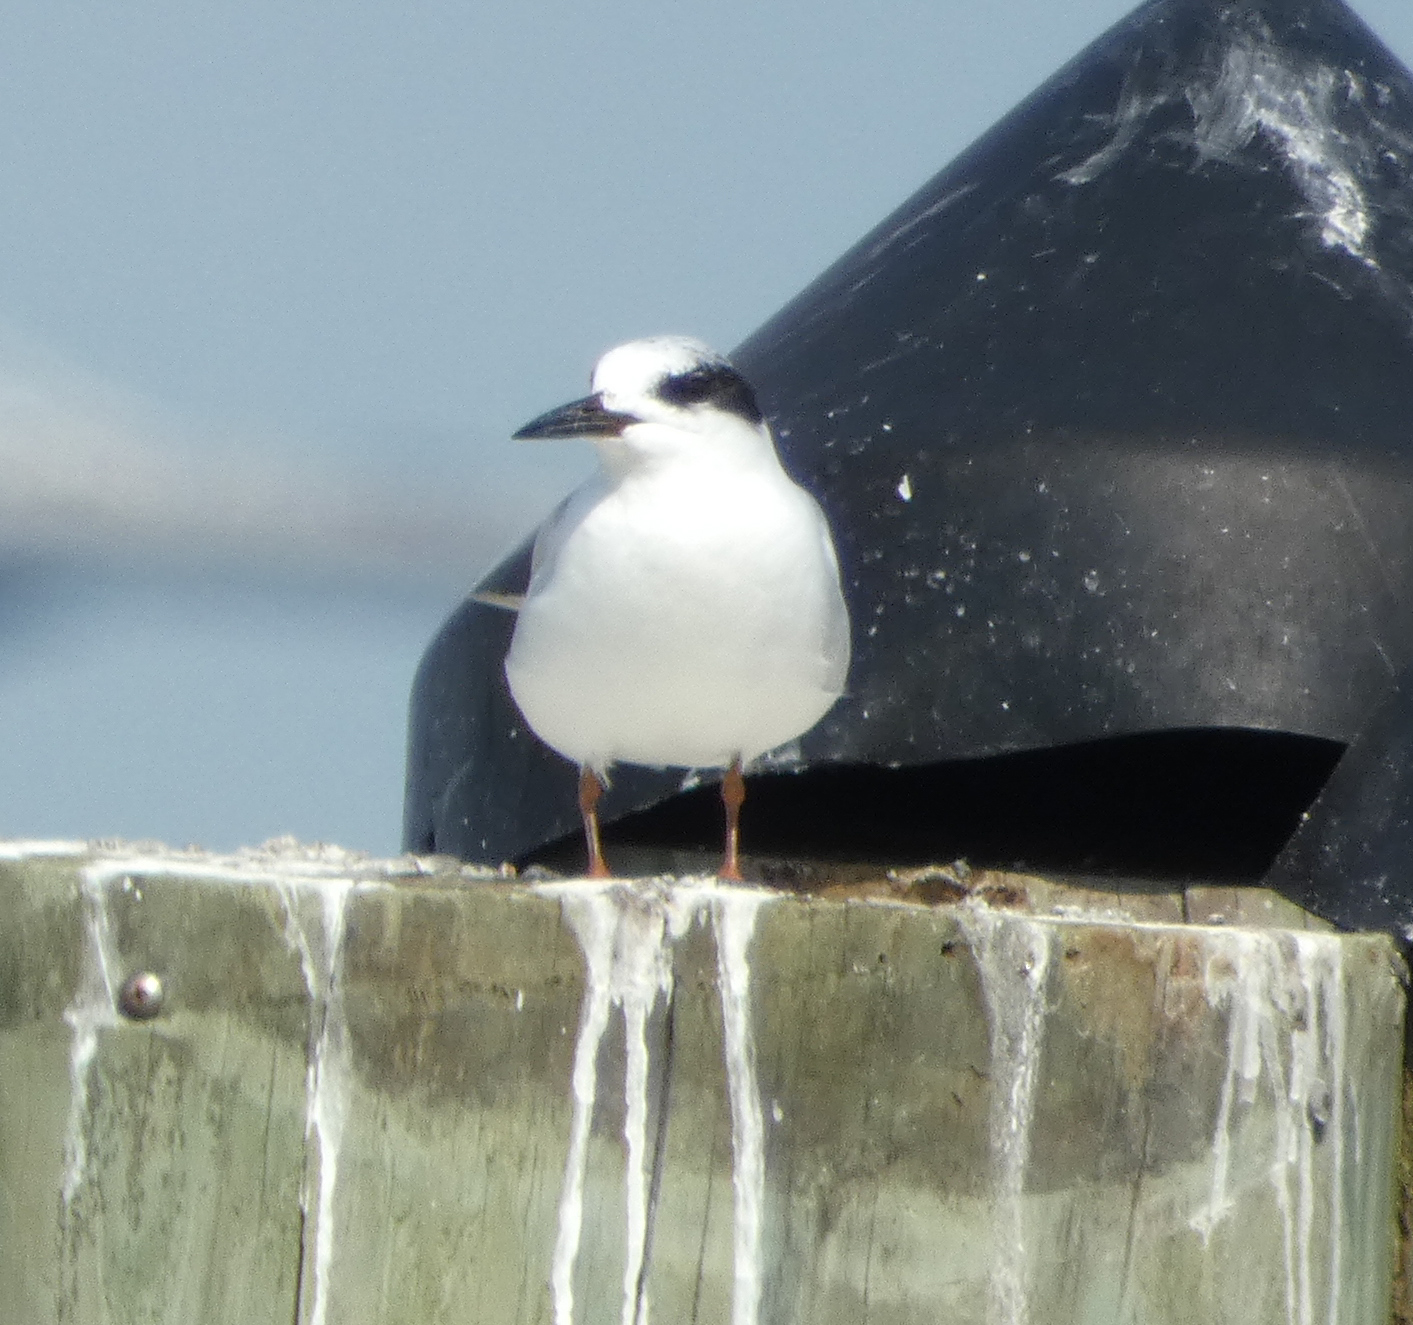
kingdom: Animalia
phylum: Chordata
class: Aves
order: Charadriiformes
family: Laridae
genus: Sterna
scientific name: Sterna forsteri
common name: Forster's tern
